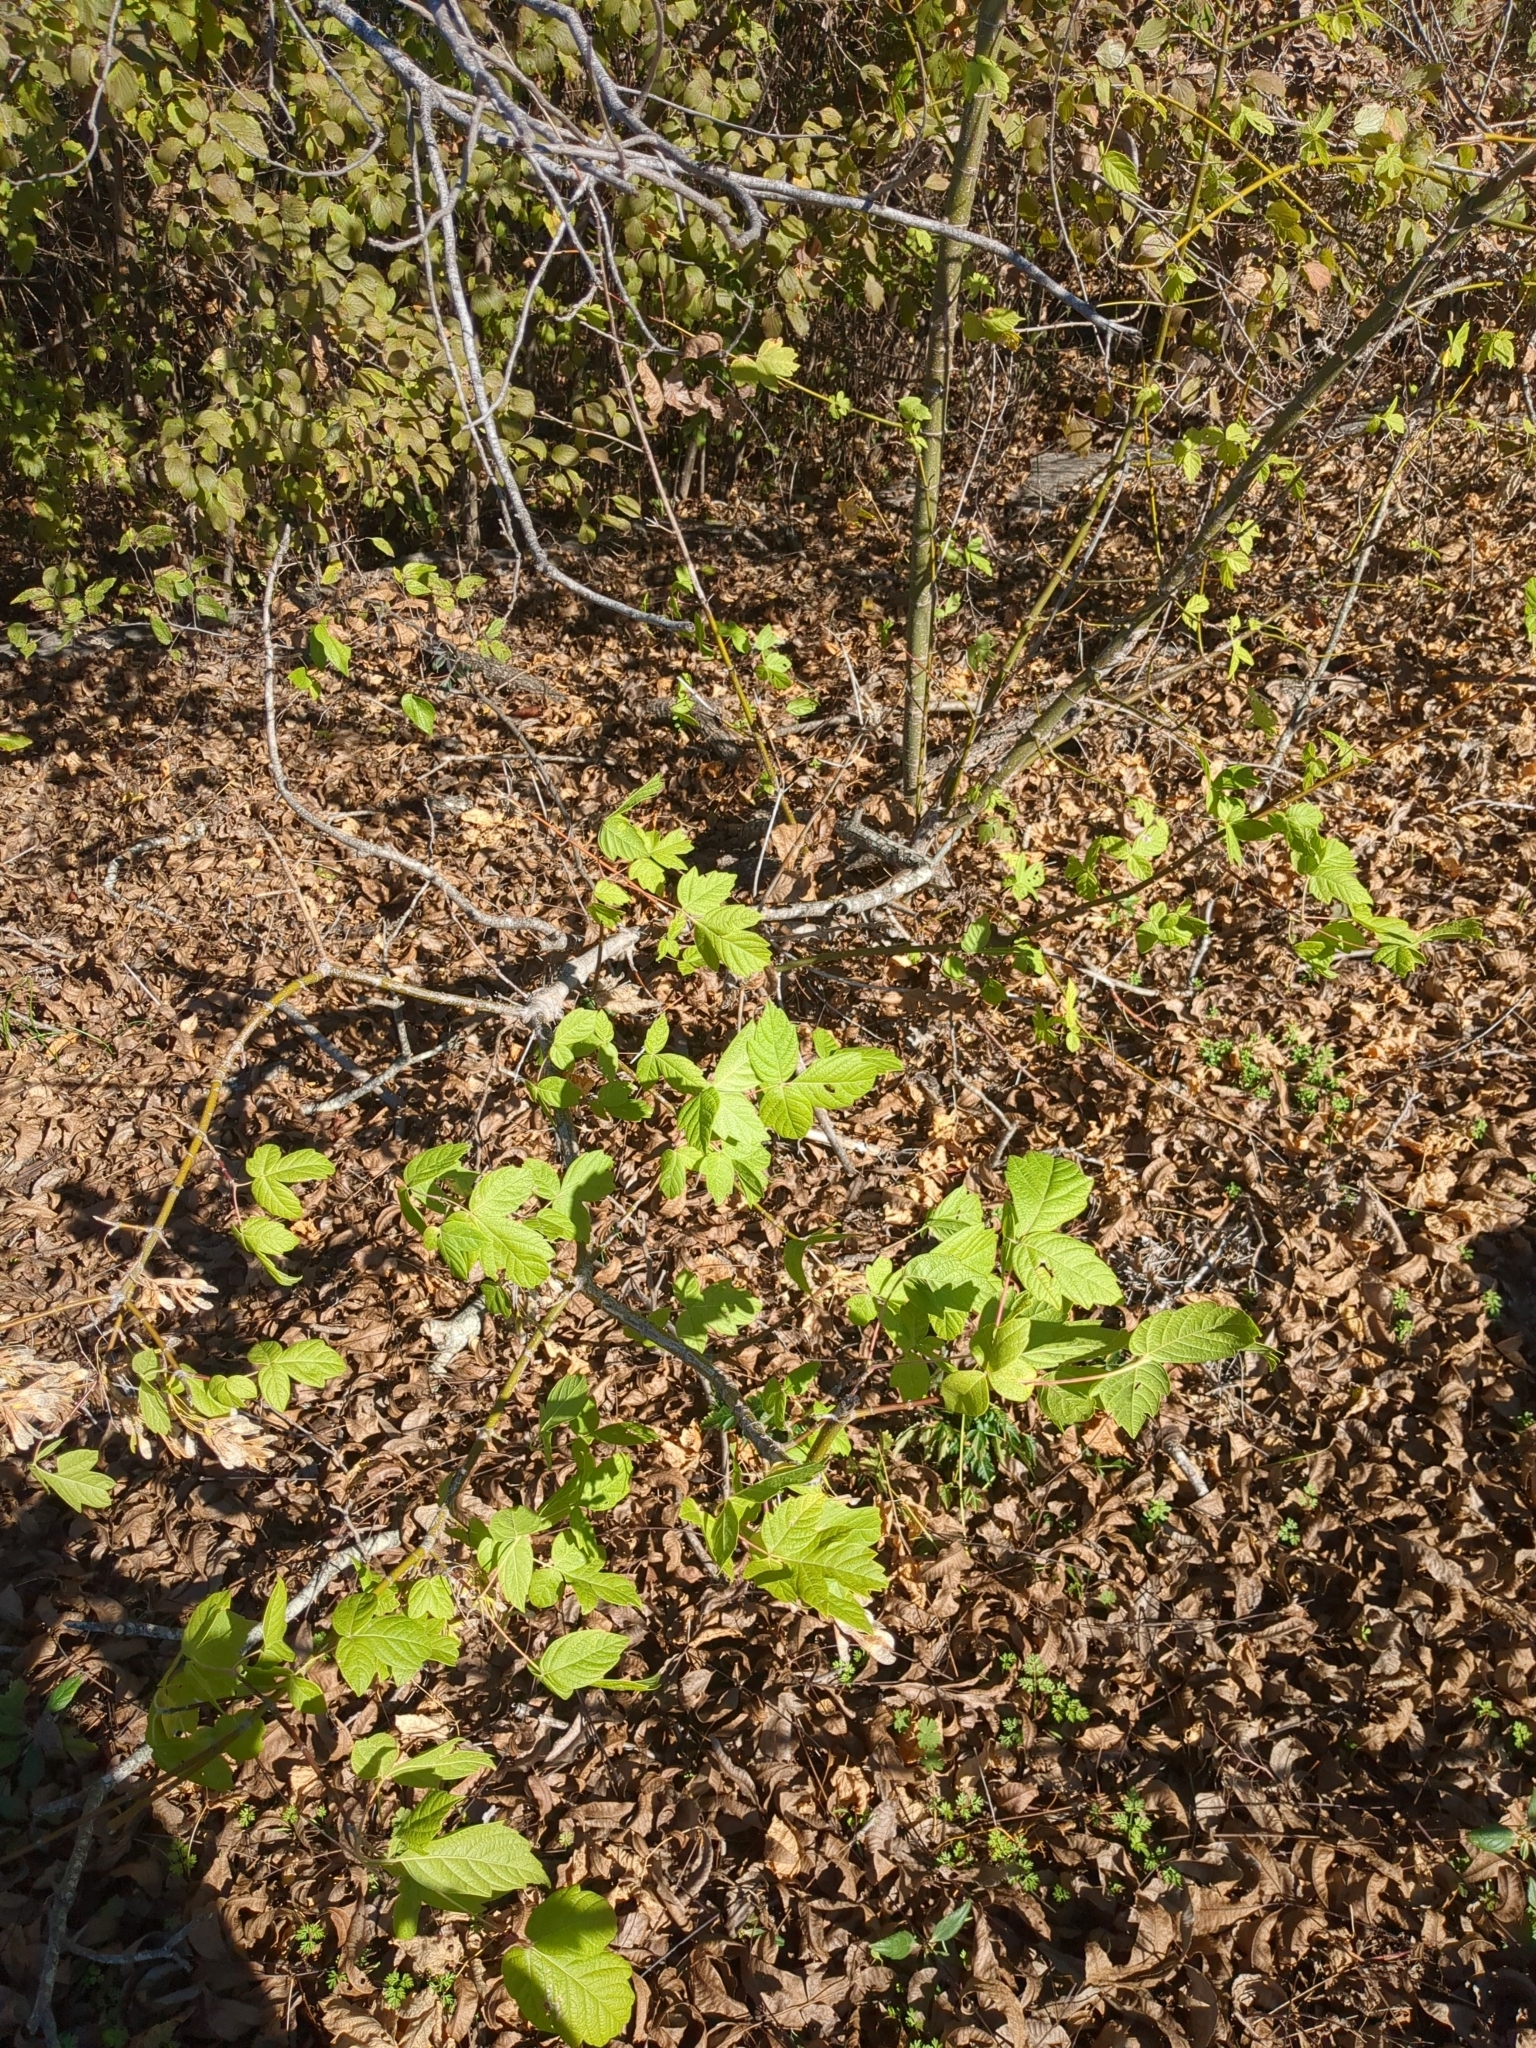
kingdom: Plantae
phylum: Tracheophyta
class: Magnoliopsida
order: Sapindales
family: Sapindaceae
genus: Acer
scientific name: Acer negundo
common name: Ashleaf maple
